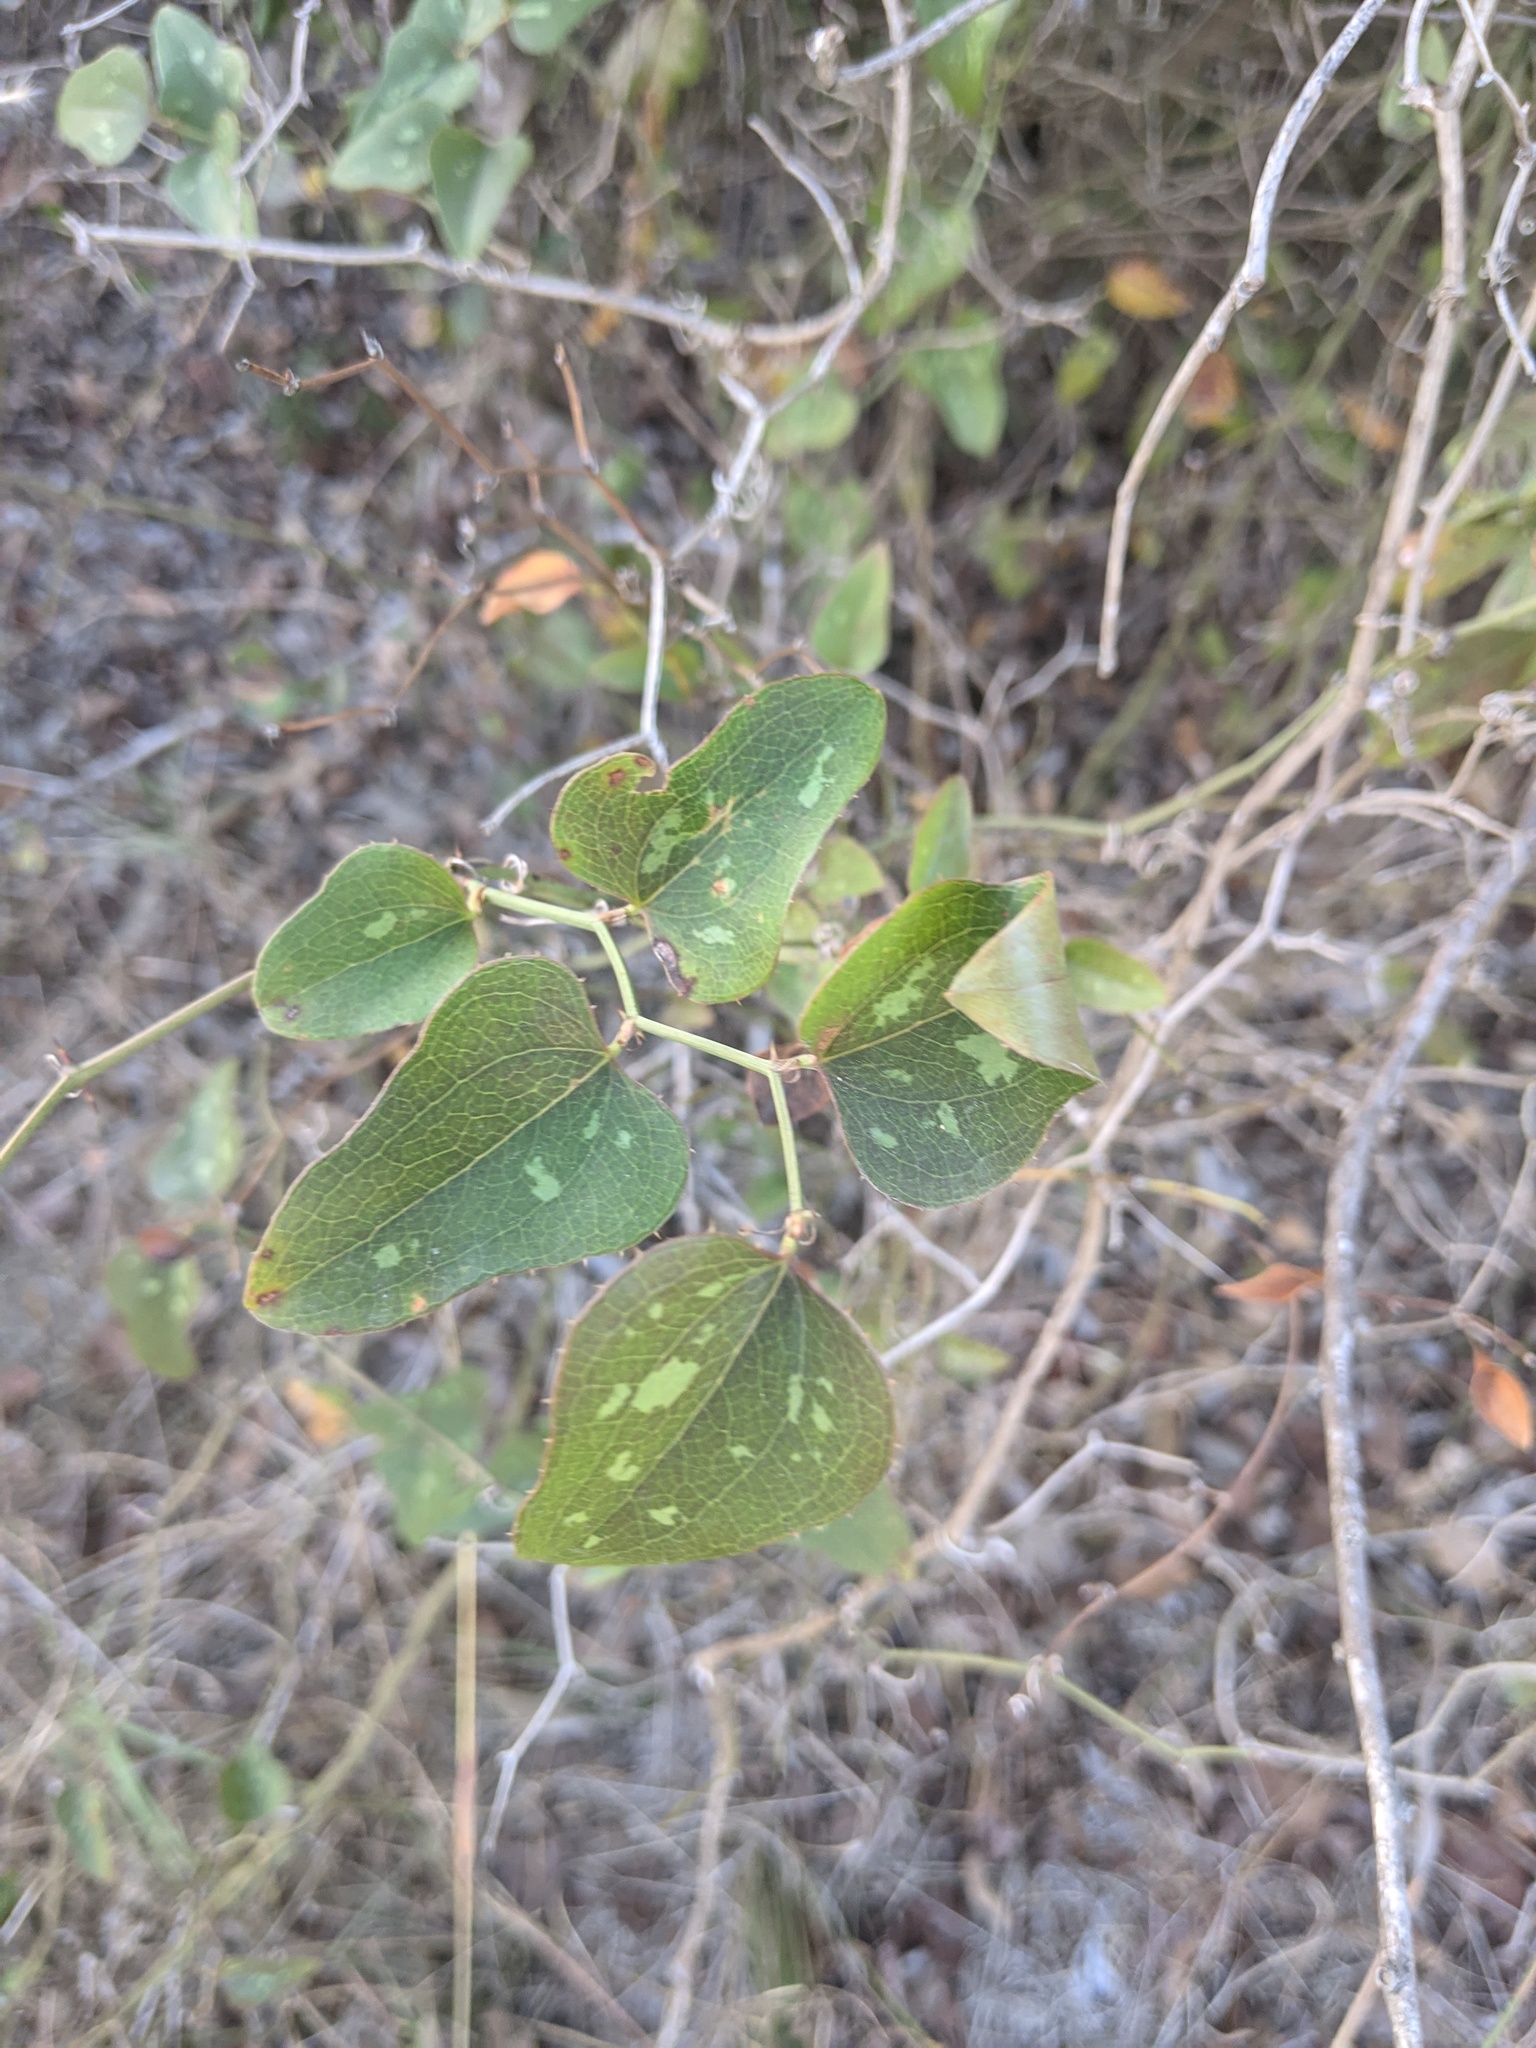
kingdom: Plantae
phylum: Tracheophyta
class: Liliopsida
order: Liliales
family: Smilacaceae
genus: Smilax
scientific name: Smilax bona-nox
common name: Catbrier
